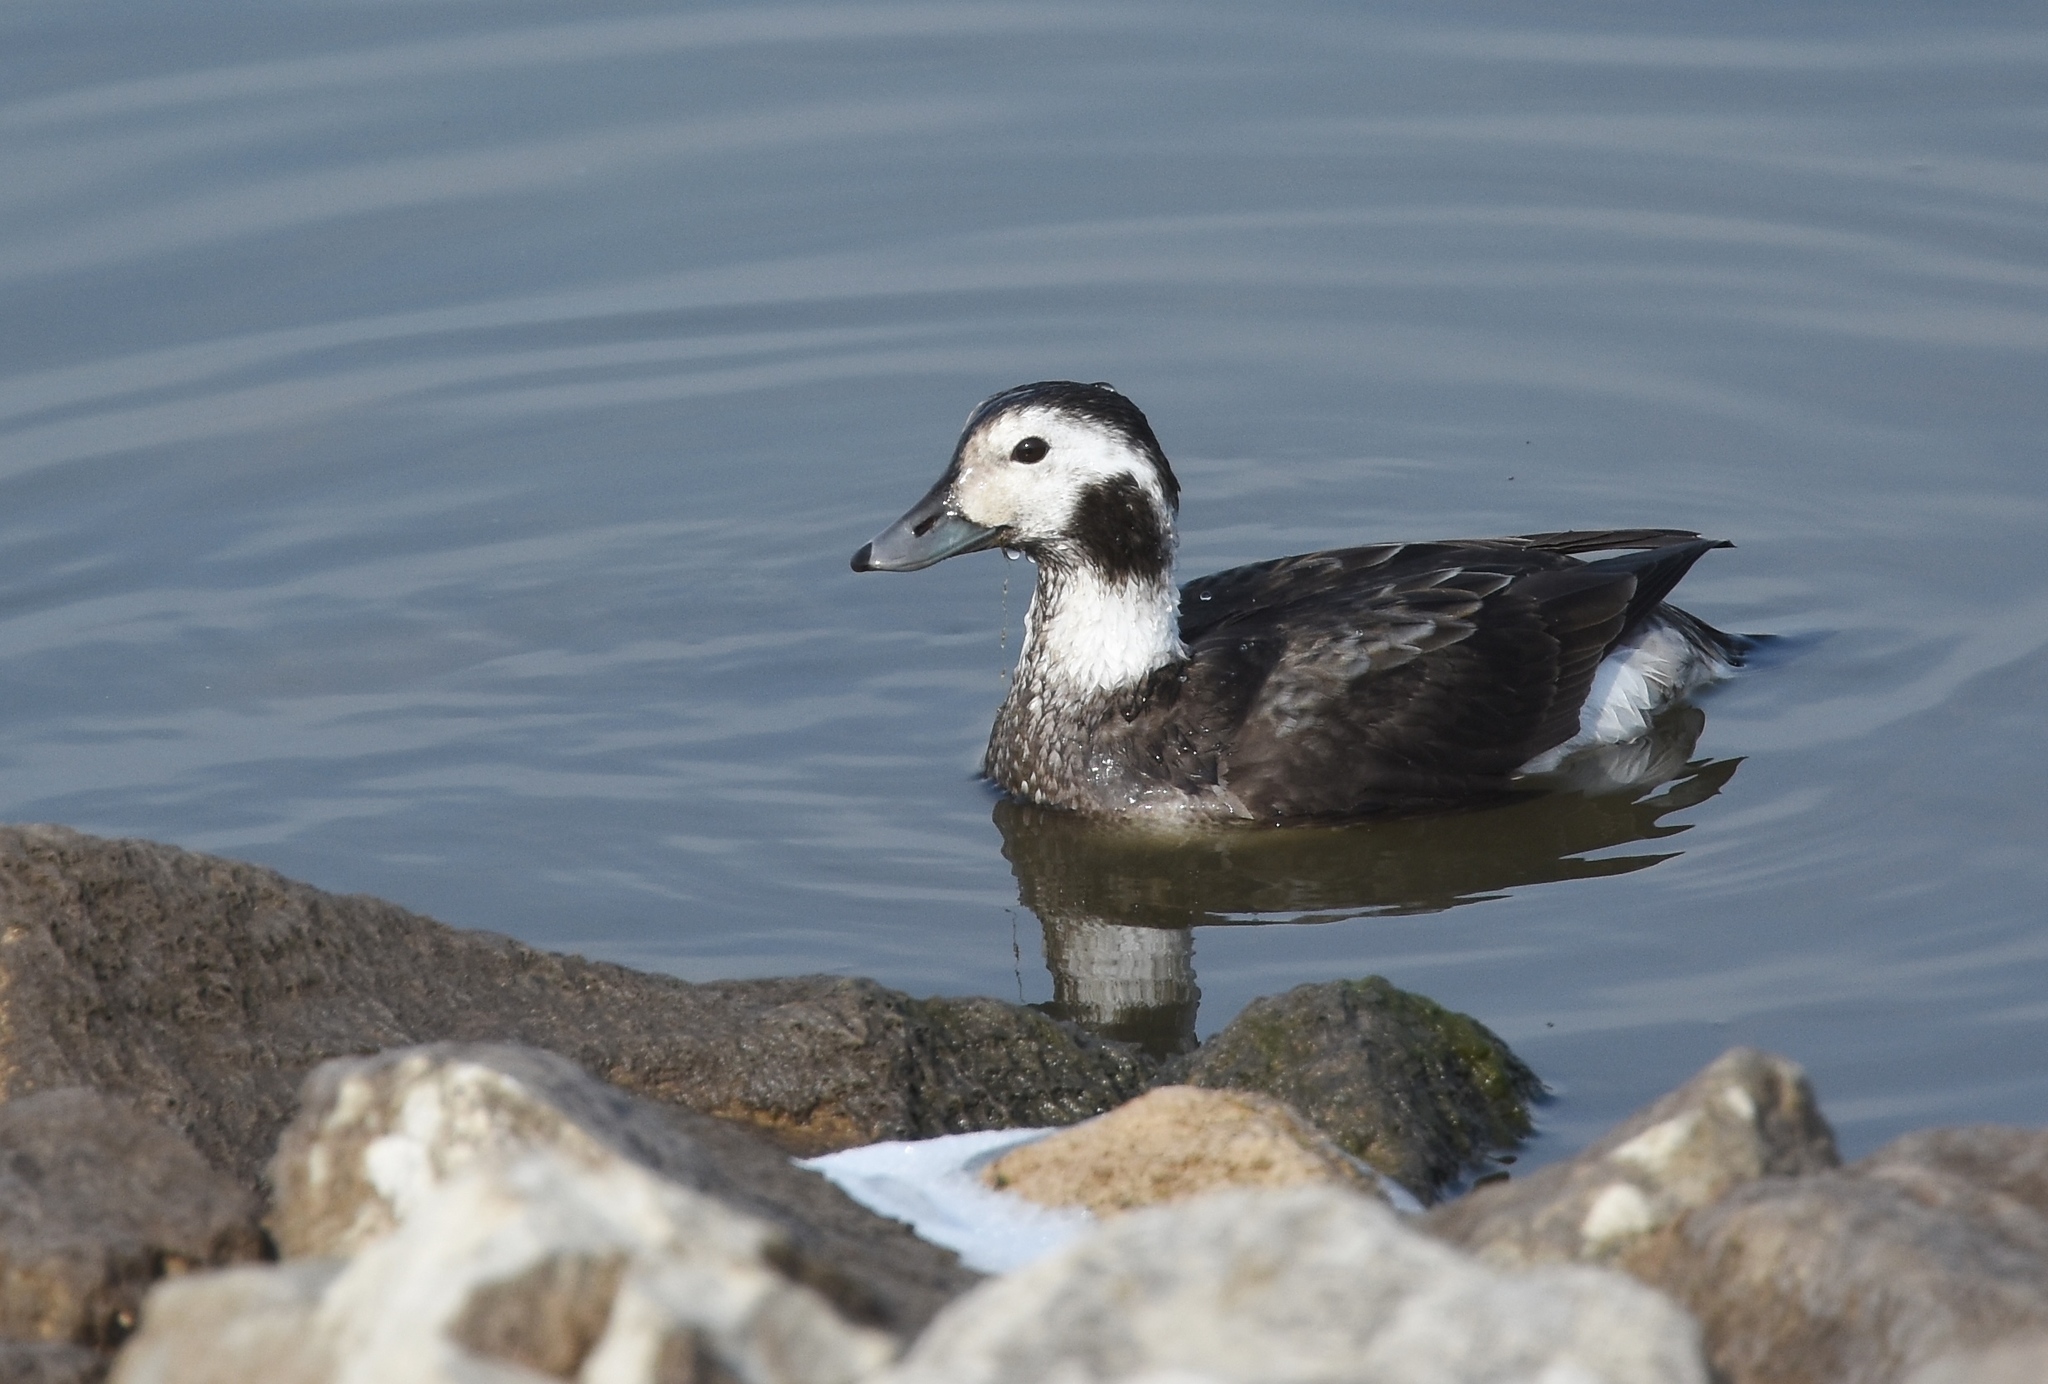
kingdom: Animalia
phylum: Chordata
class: Aves
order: Anseriformes
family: Anatidae
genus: Clangula
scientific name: Clangula hyemalis
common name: Long-tailed duck
